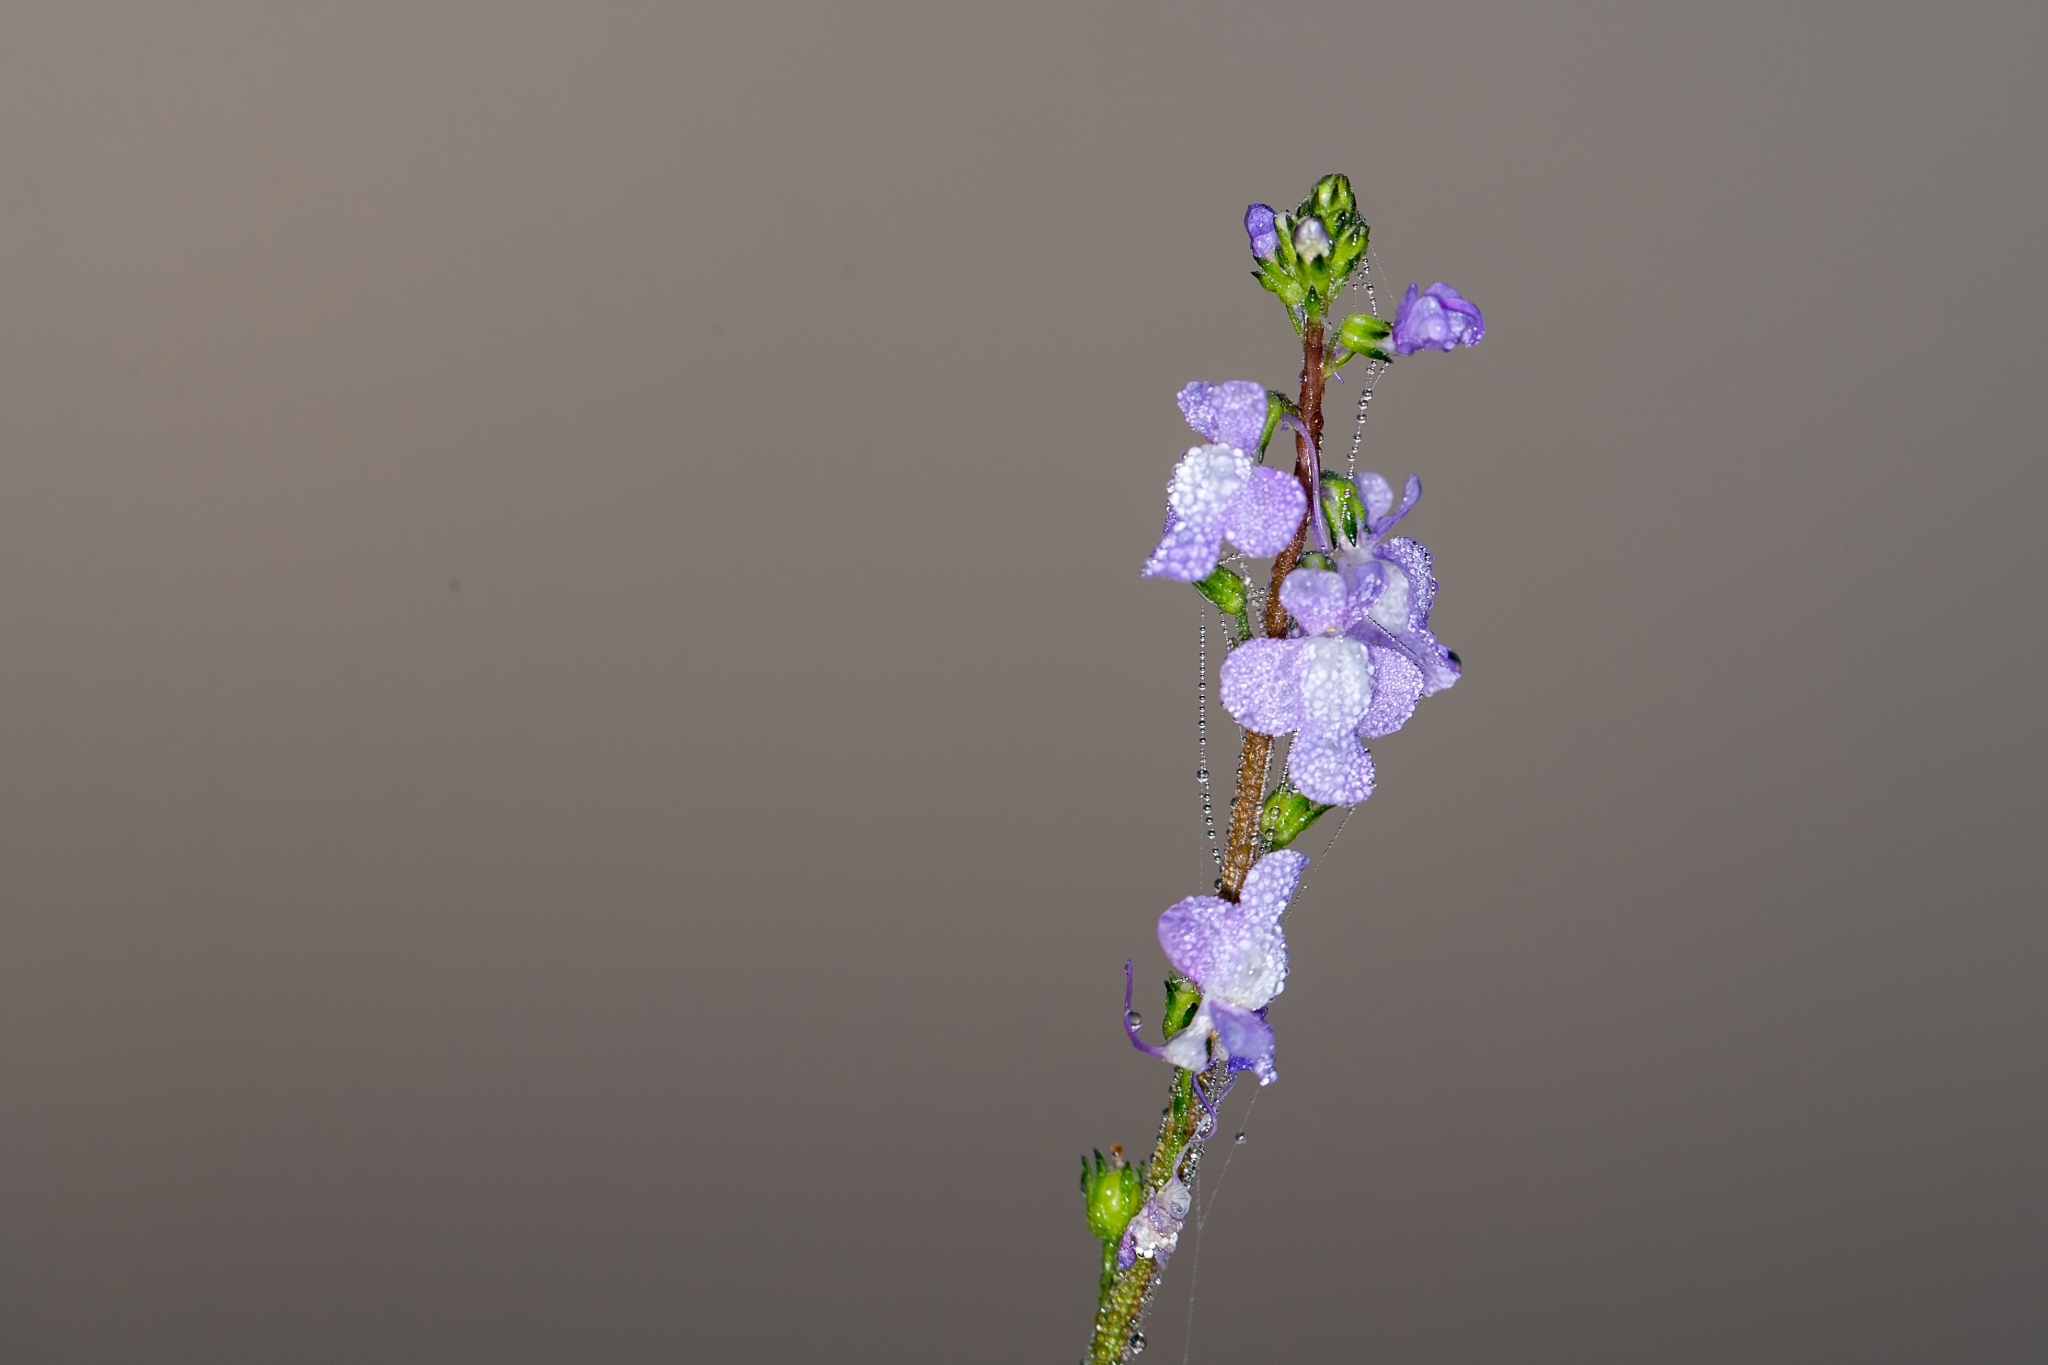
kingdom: Plantae
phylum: Tracheophyta
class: Magnoliopsida
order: Lamiales
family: Plantaginaceae
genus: Nuttallanthus
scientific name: Nuttallanthus canadensis
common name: Blue toadflax
